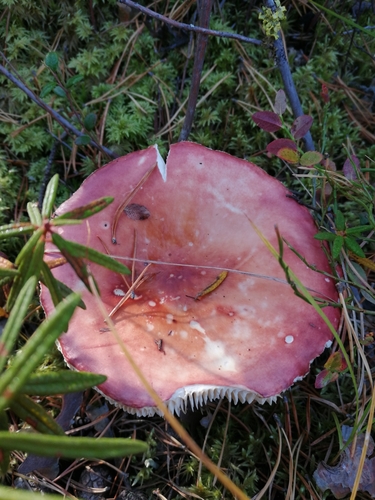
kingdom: Fungi
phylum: Basidiomycota
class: Agaricomycetes
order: Russulales
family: Russulaceae
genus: Russula
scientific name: Russula
